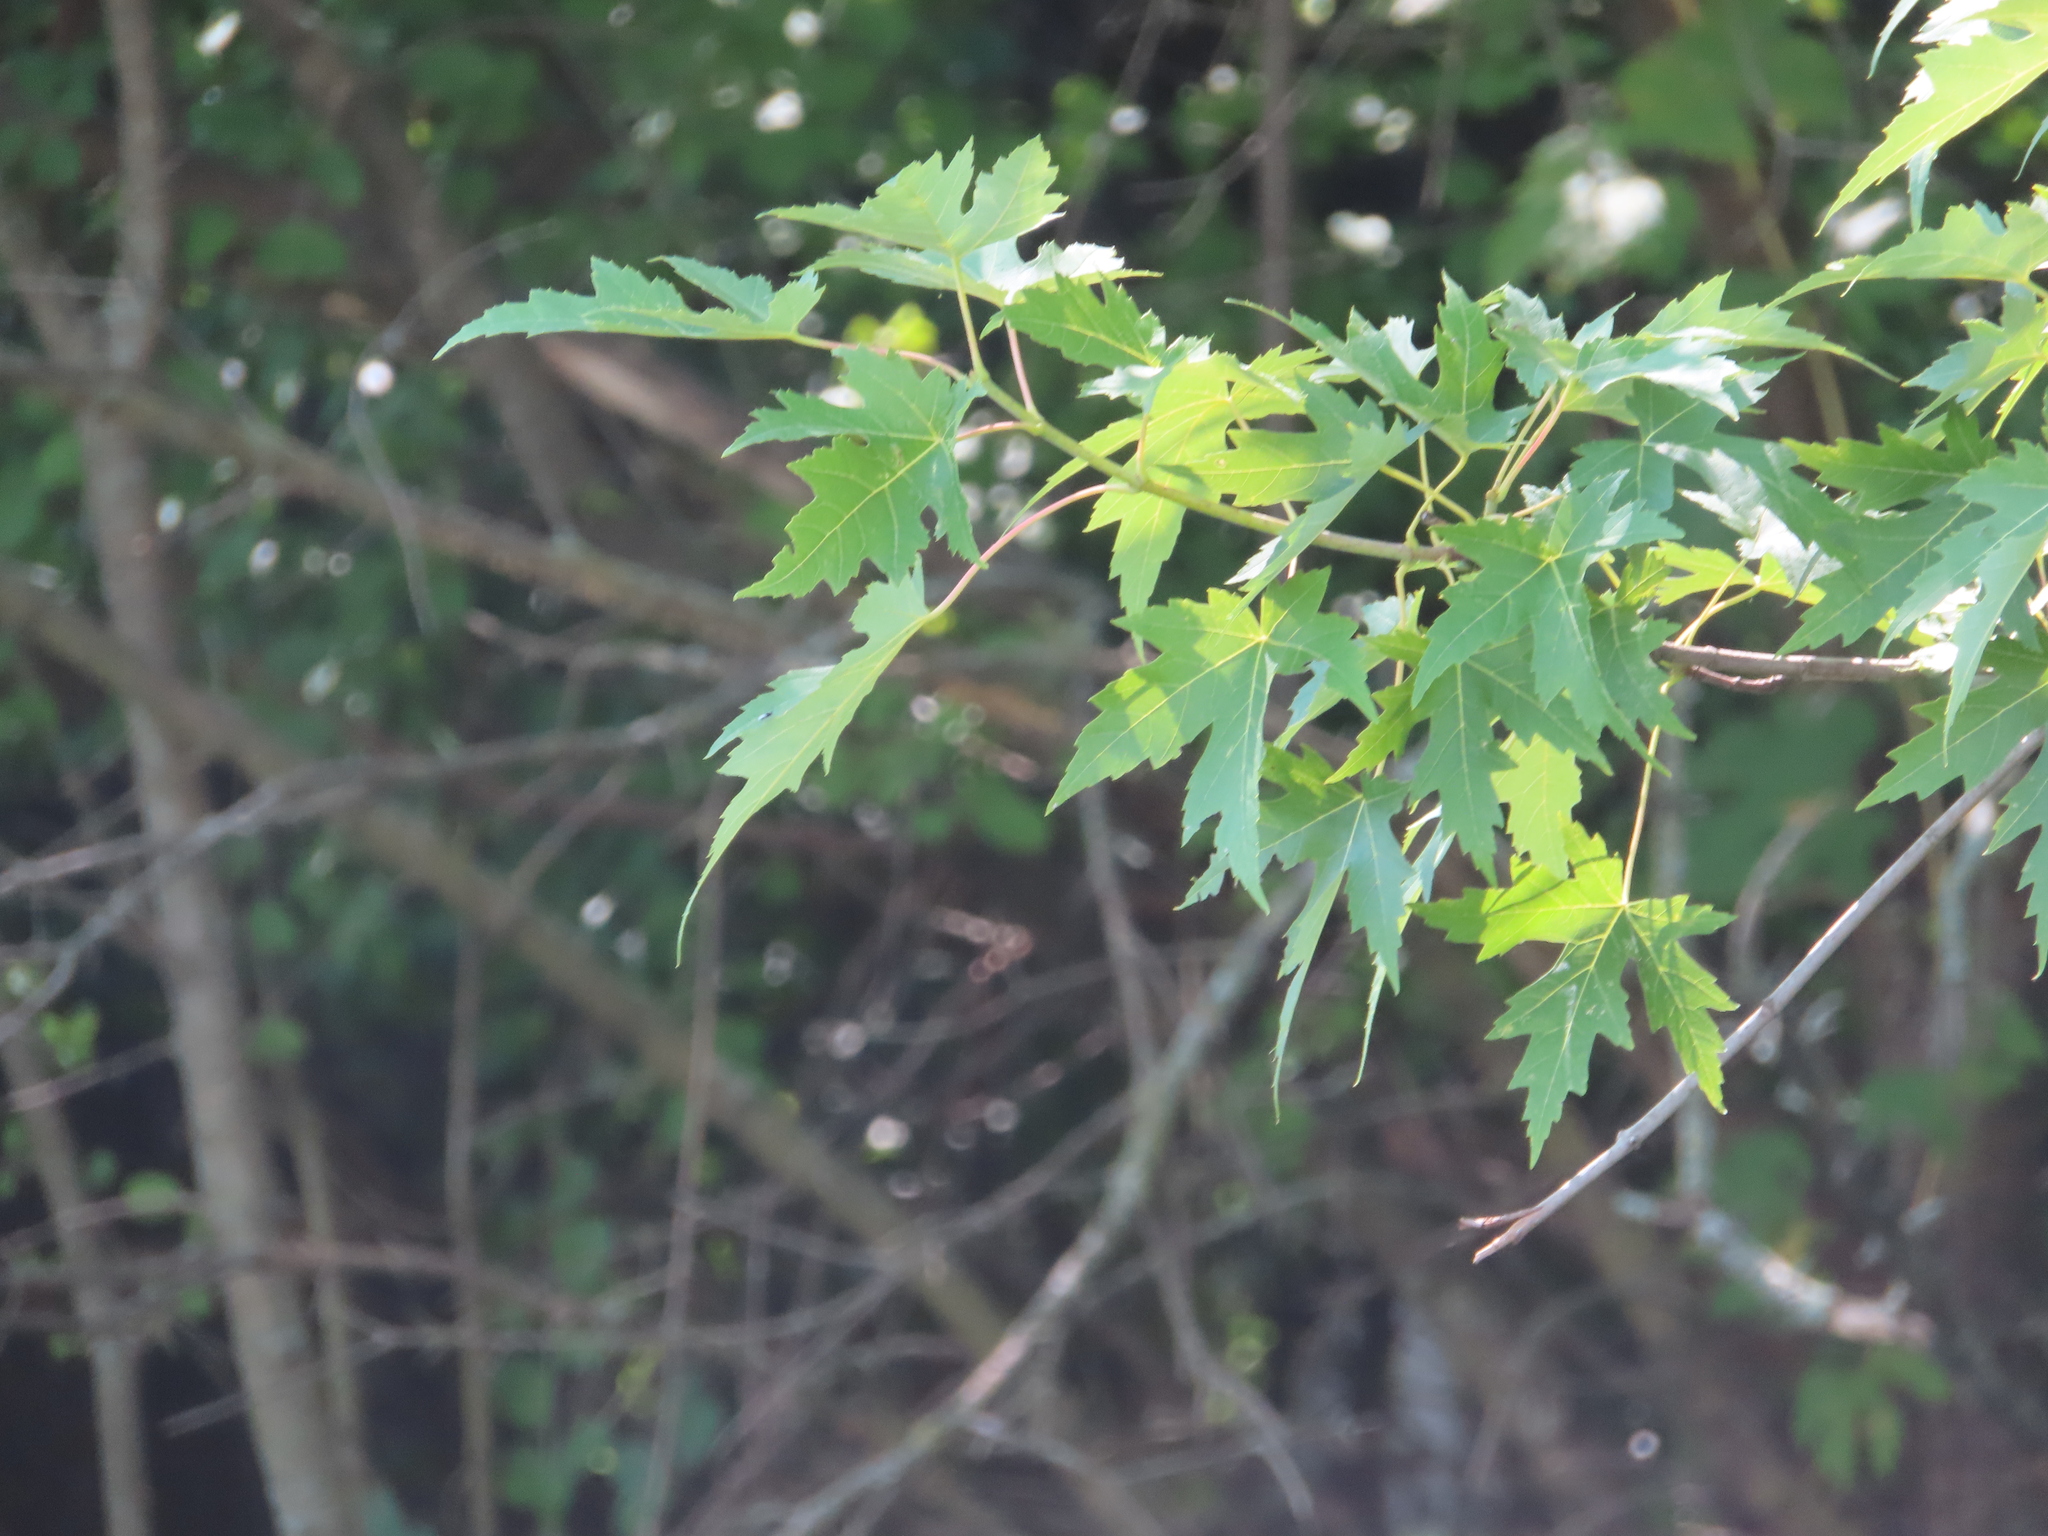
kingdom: Plantae
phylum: Tracheophyta
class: Magnoliopsida
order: Sapindales
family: Sapindaceae
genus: Acer
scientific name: Acer saccharinum
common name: Silver maple
